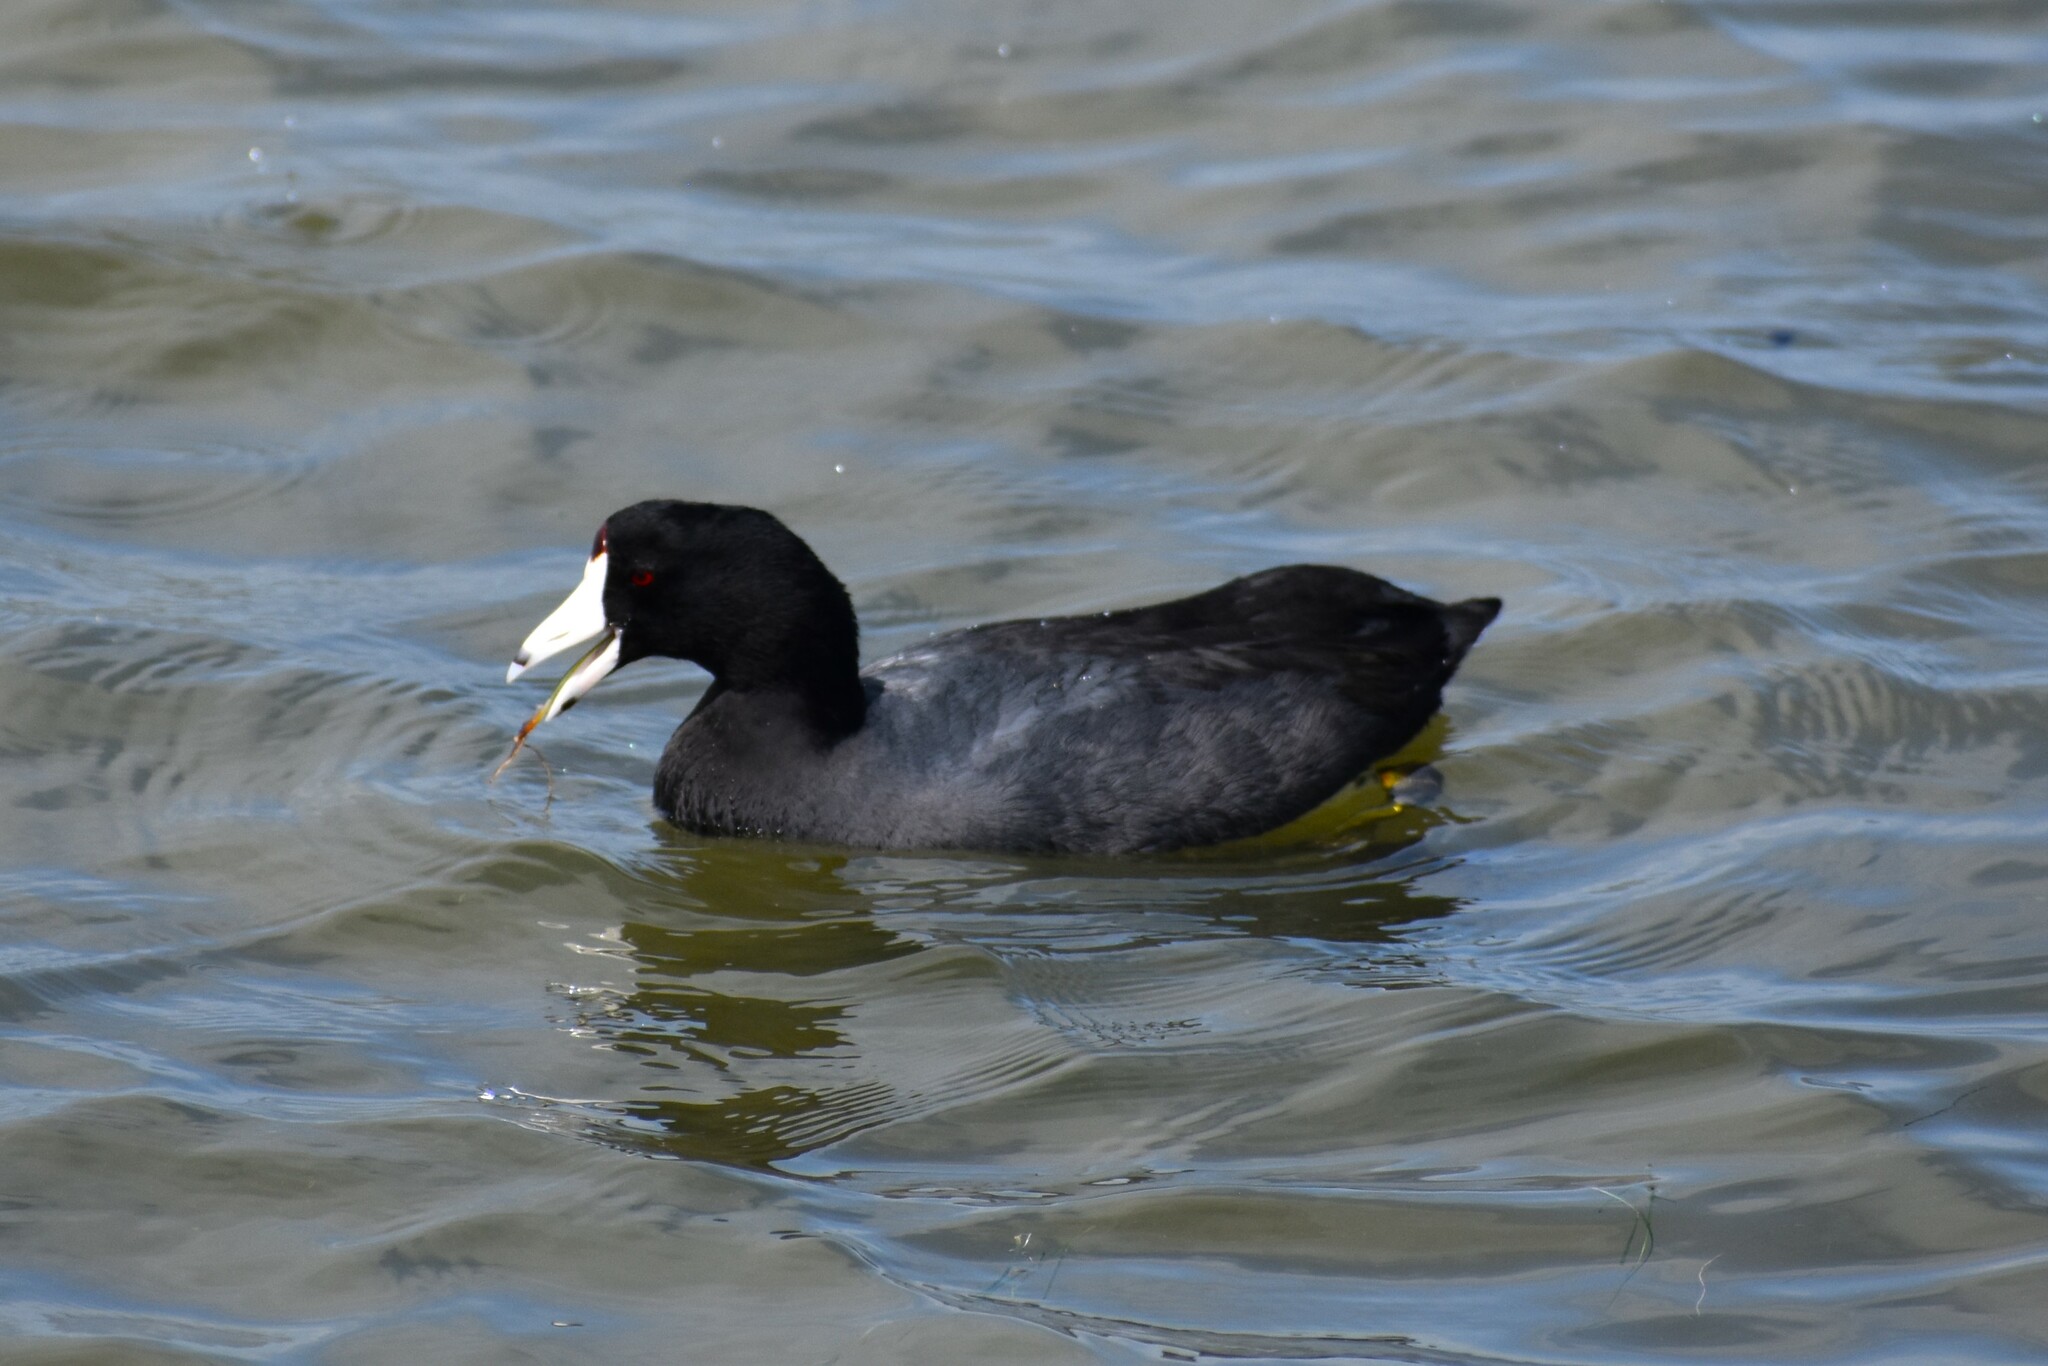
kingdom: Animalia
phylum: Chordata
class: Aves
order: Gruiformes
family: Rallidae
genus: Fulica
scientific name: Fulica americana
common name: American coot
